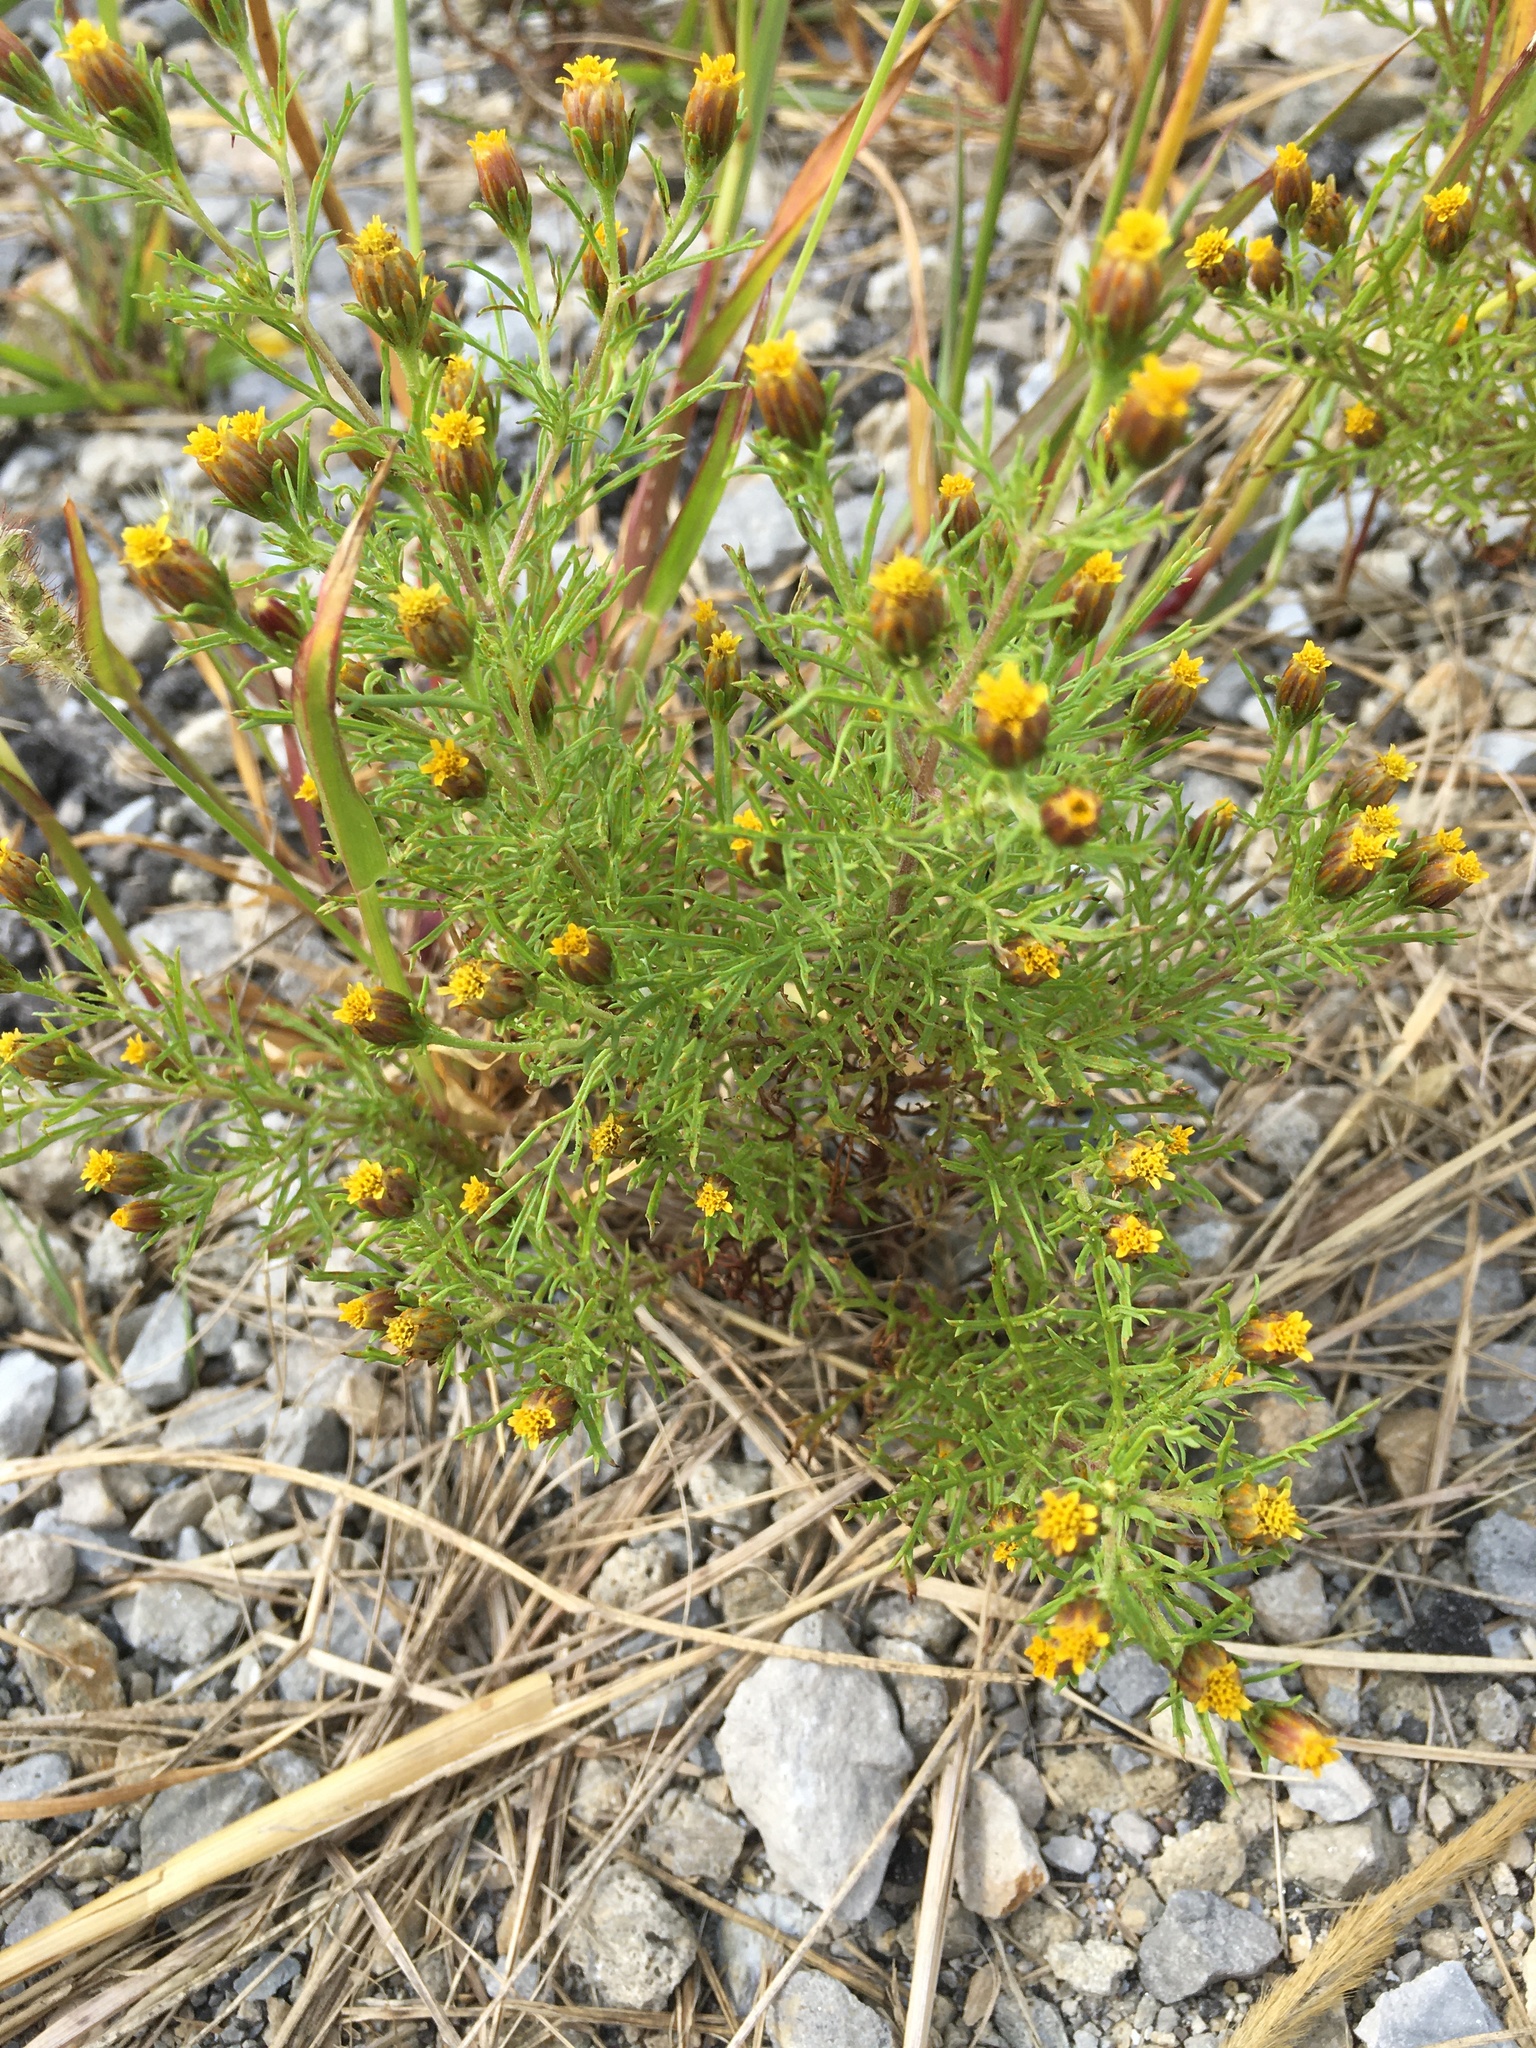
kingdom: Plantae
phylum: Tracheophyta
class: Magnoliopsida
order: Asterales
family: Asteraceae
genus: Dyssodia
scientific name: Dyssodia papposa
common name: Dogweed
